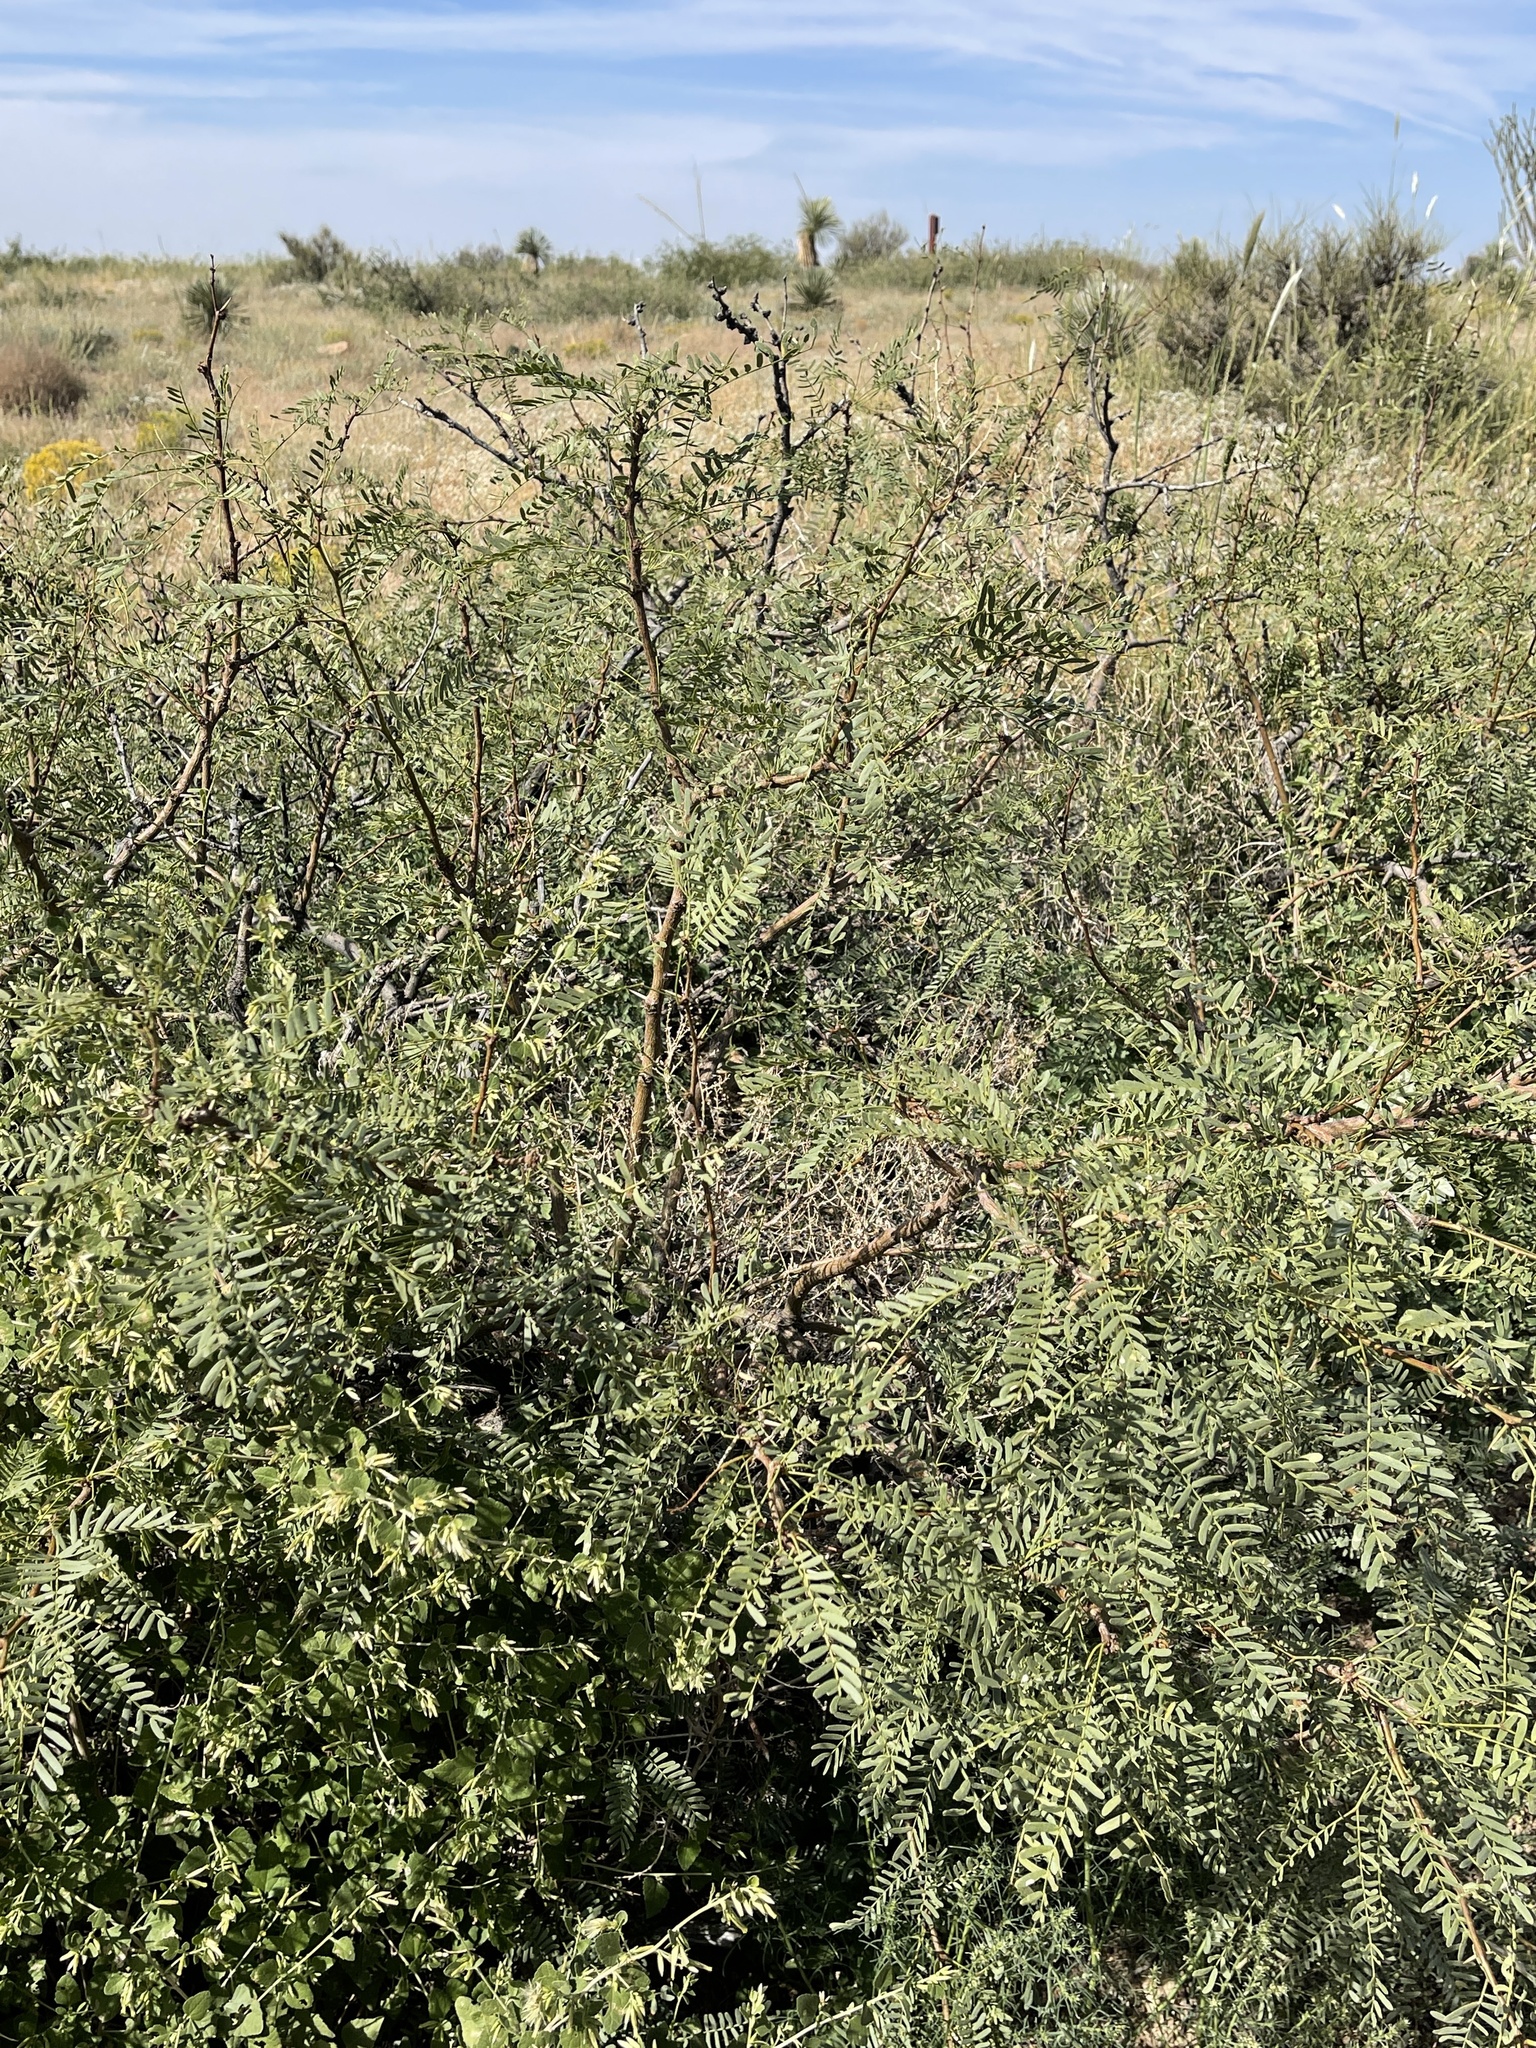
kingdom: Plantae
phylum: Tracheophyta
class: Magnoliopsida
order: Fabales
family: Fabaceae
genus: Prosopis
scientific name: Prosopis glandulosa
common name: Honey mesquite
